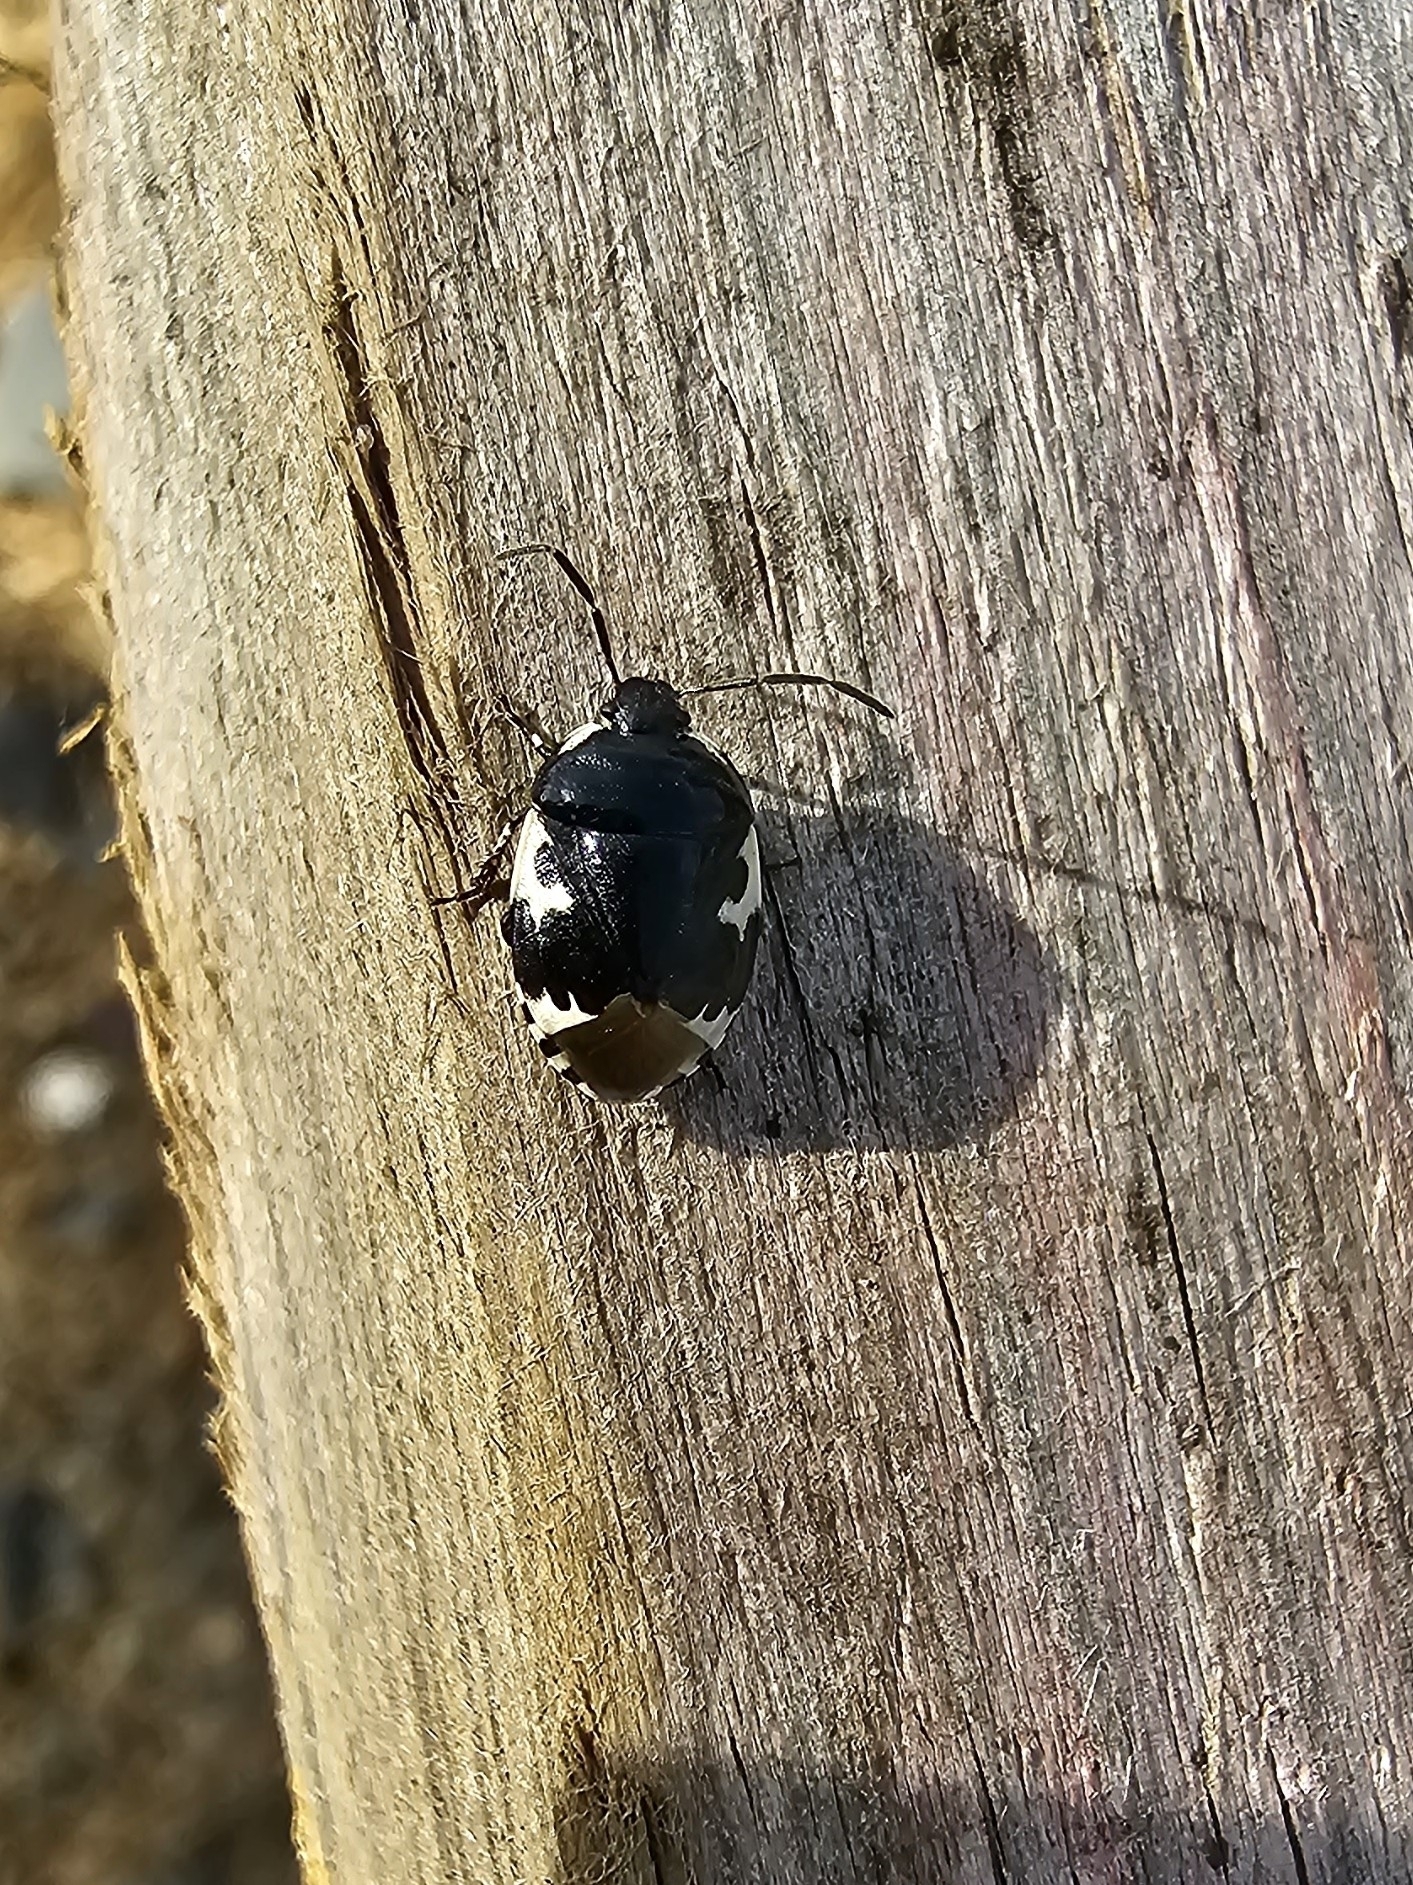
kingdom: Animalia
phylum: Arthropoda
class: Insecta
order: Hemiptera
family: Cydnidae
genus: Tritomegas
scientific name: Tritomegas bicolor
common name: Pied shieldbug
